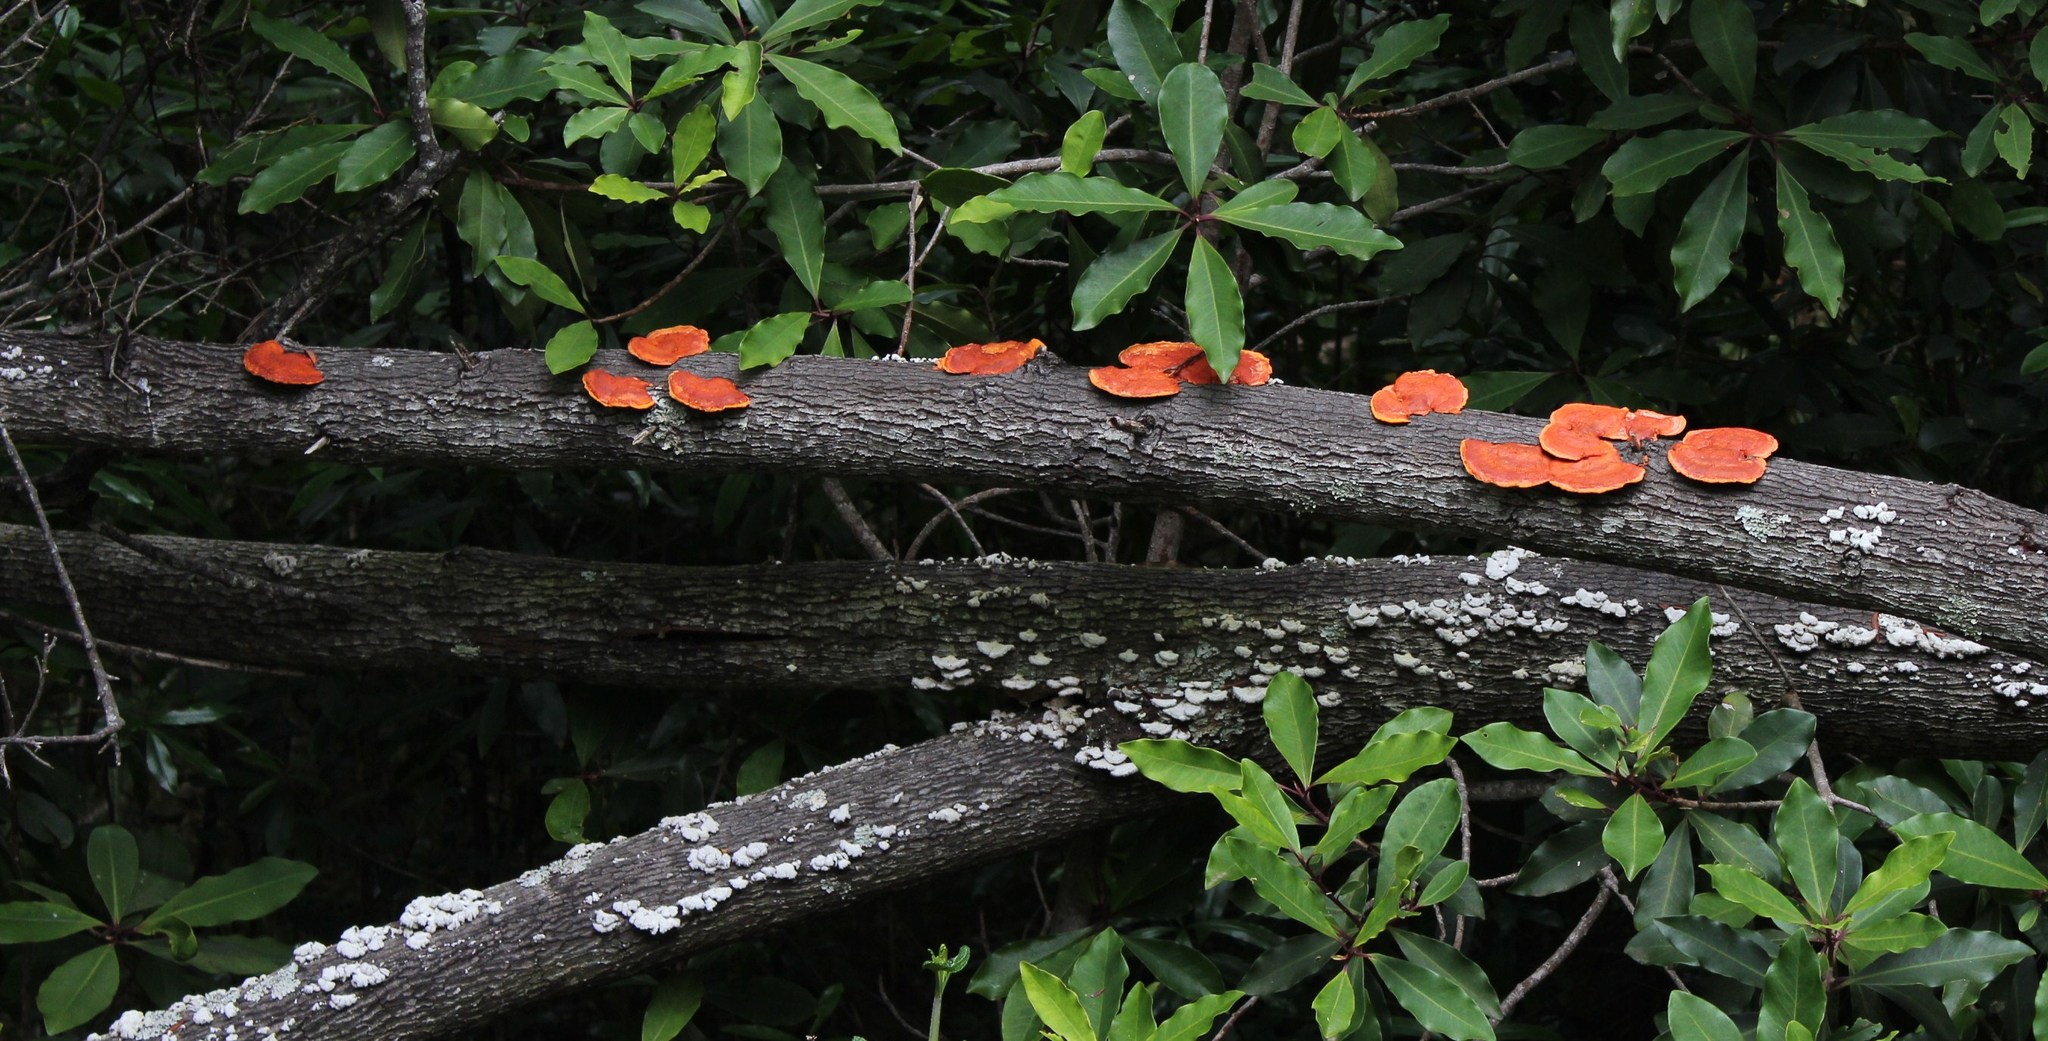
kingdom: Fungi
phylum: Basidiomycota
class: Agaricomycetes
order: Polyporales
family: Polyporaceae
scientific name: Polyporaceae
